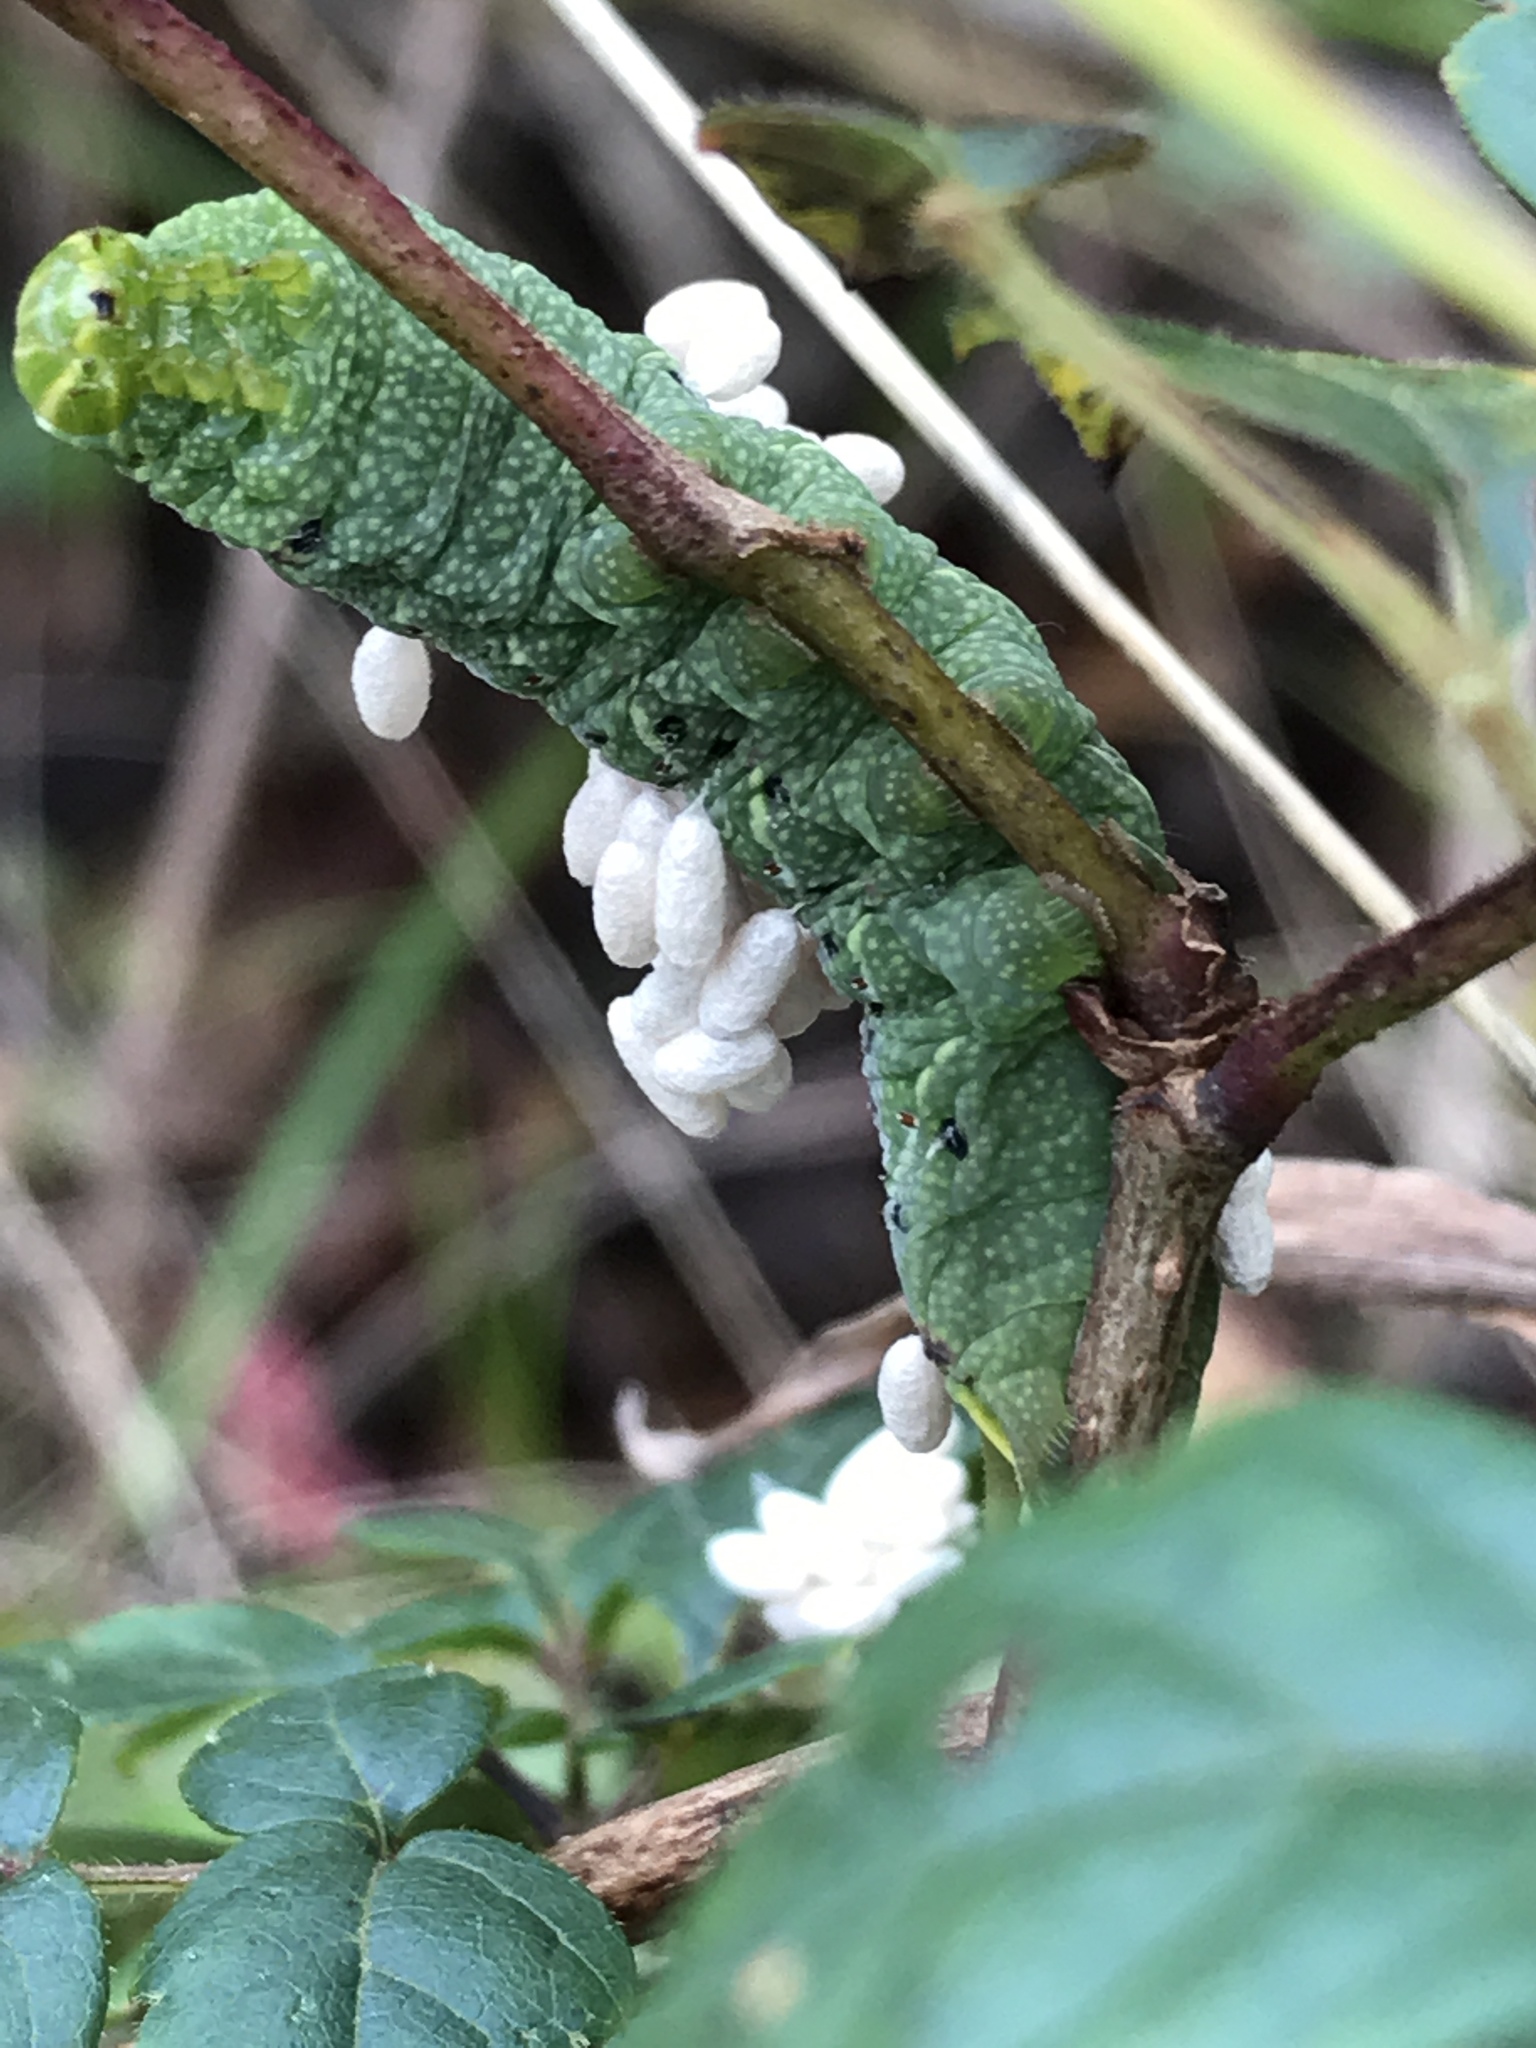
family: Polydnaviriformidae
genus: Bracoviriform
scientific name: Bracoviriform congregatae
